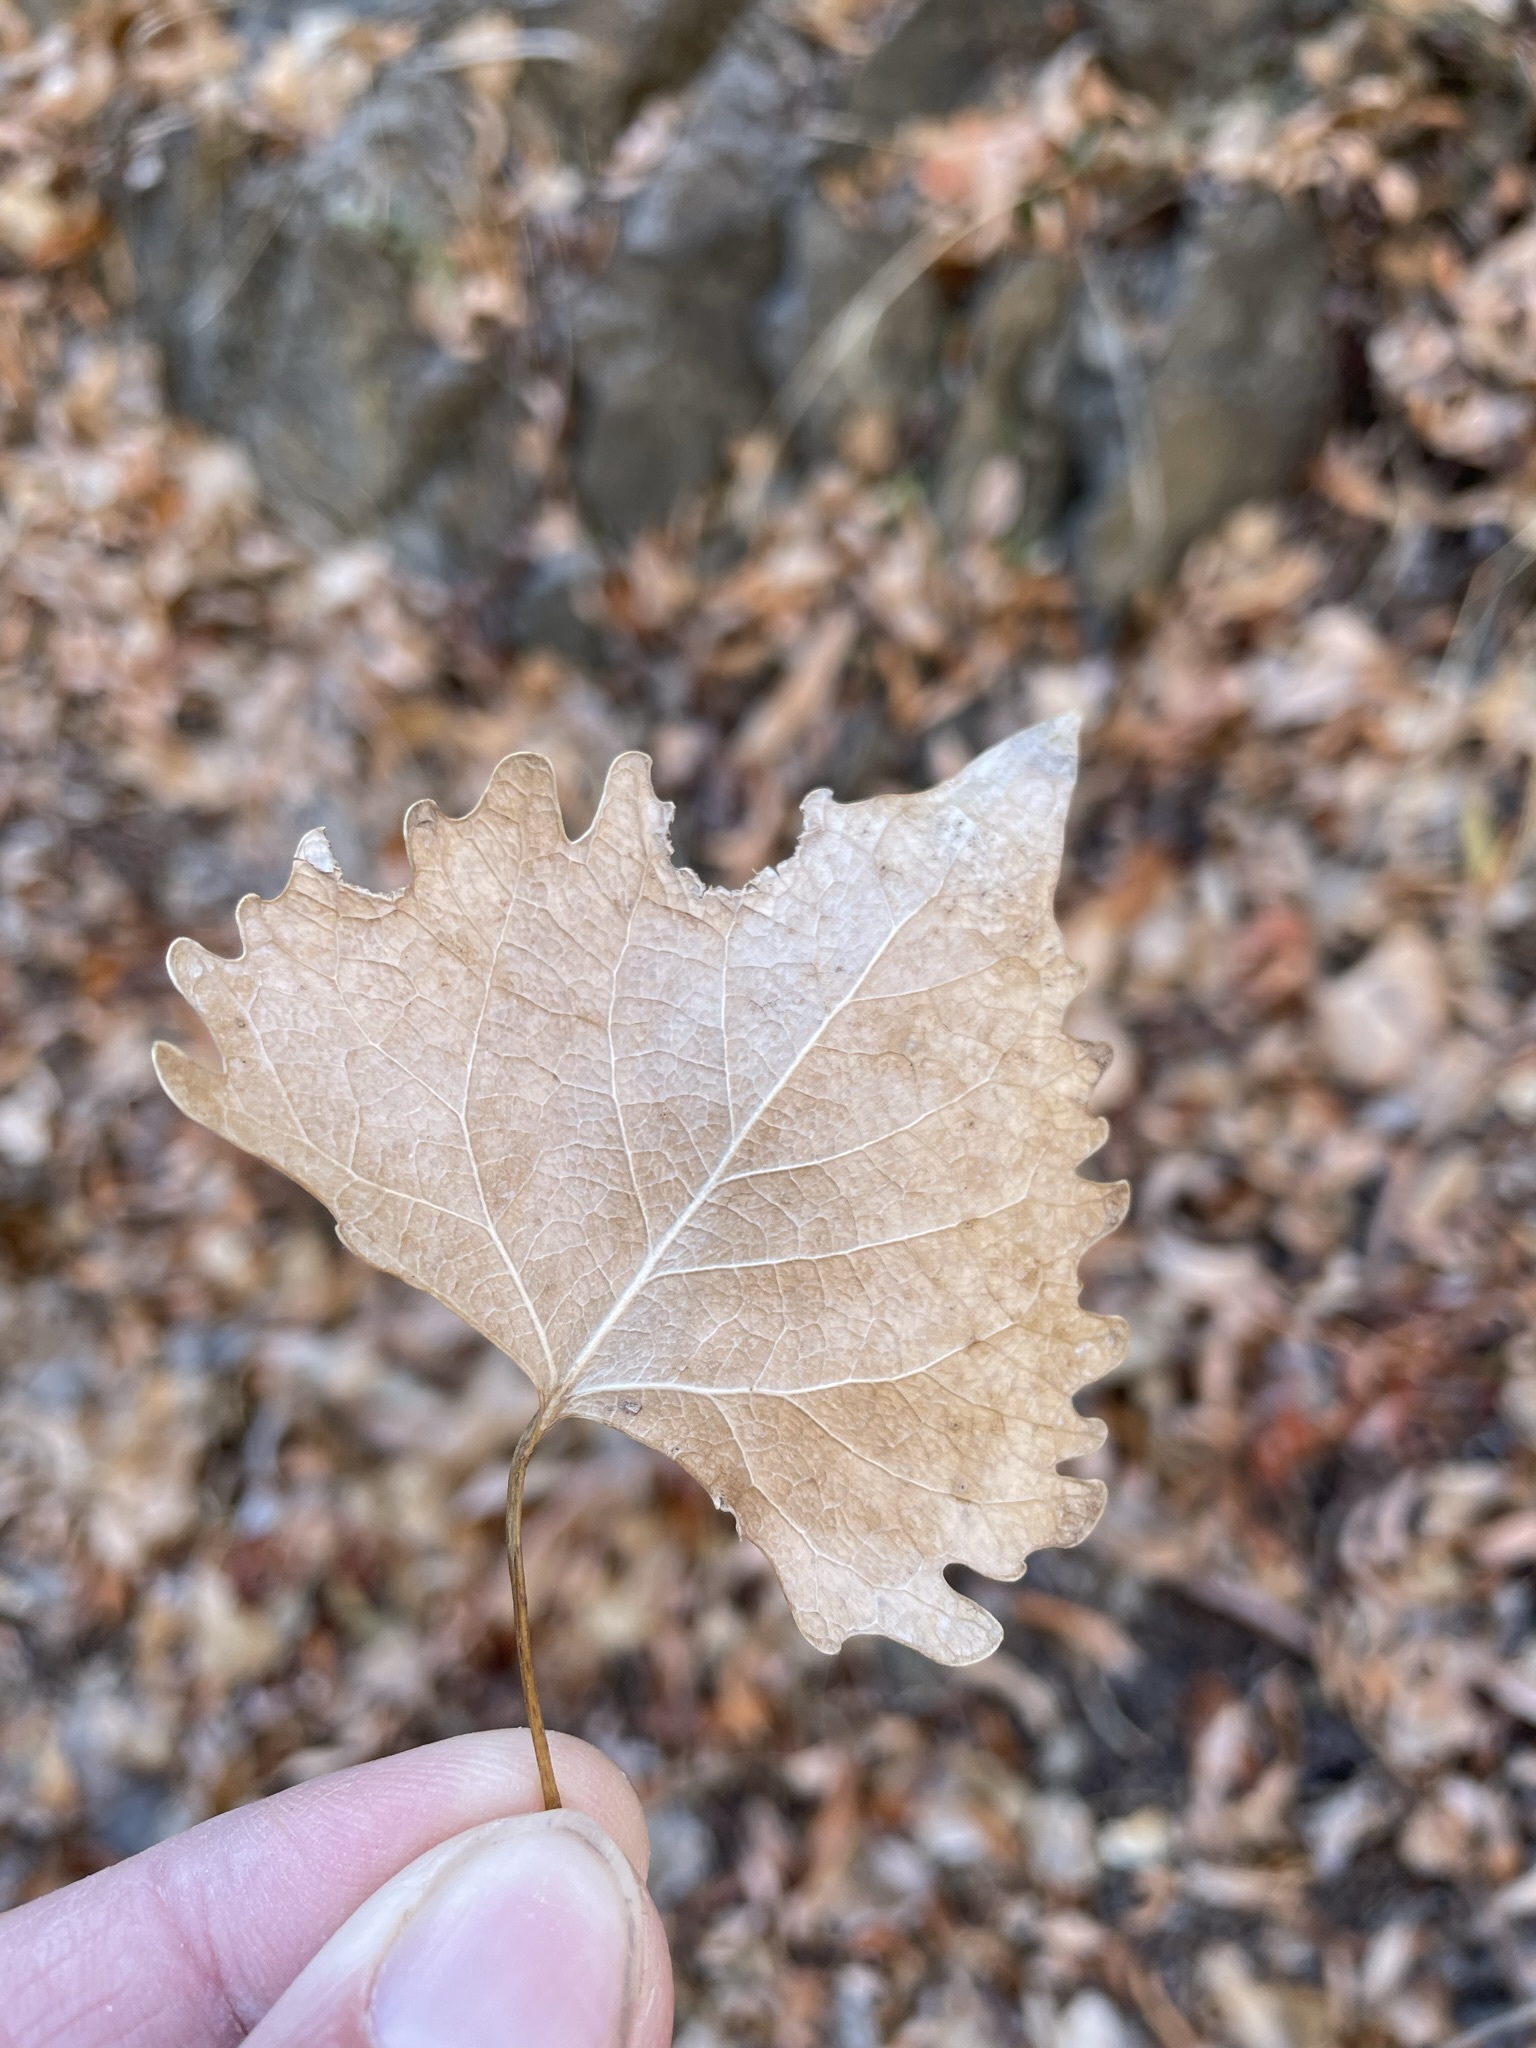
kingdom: Plantae
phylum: Tracheophyta
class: Magnoliopsida
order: Malpighiales
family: Salicaceae
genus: Populus
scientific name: Populus fremontii
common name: Fremont's cottonwood
